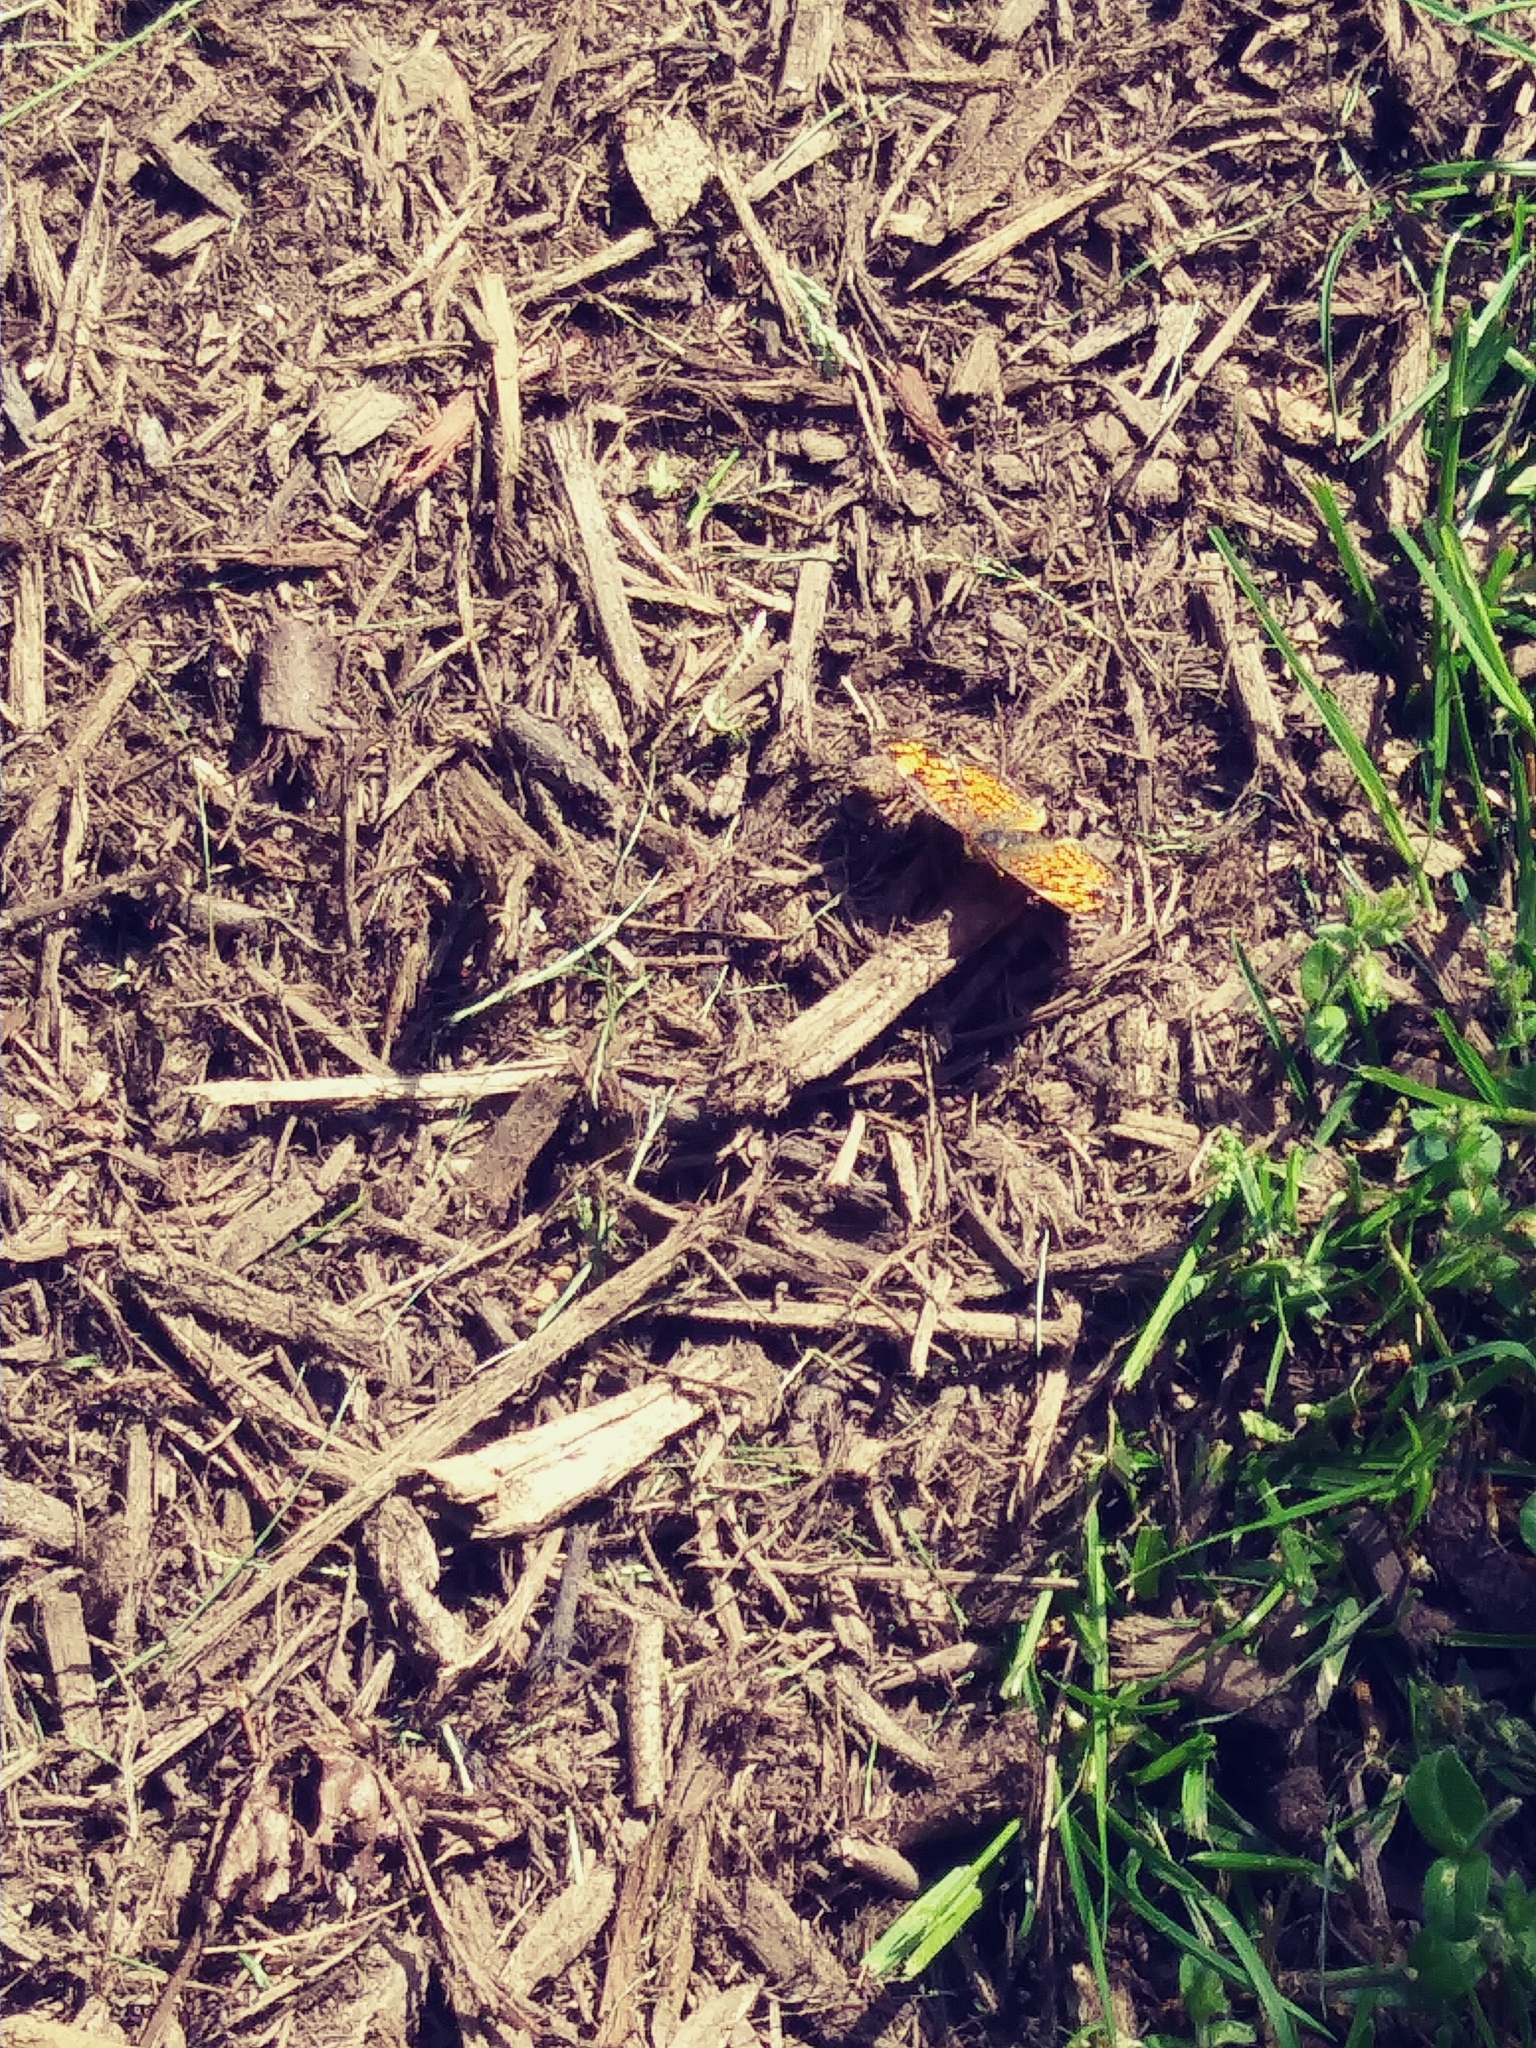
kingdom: Animalia
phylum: Arthropoda
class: Insecta
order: Lepidoptera
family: Nymphalidae
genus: Phyciodes
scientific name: Phyciodes tharos
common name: Pearl crescent
